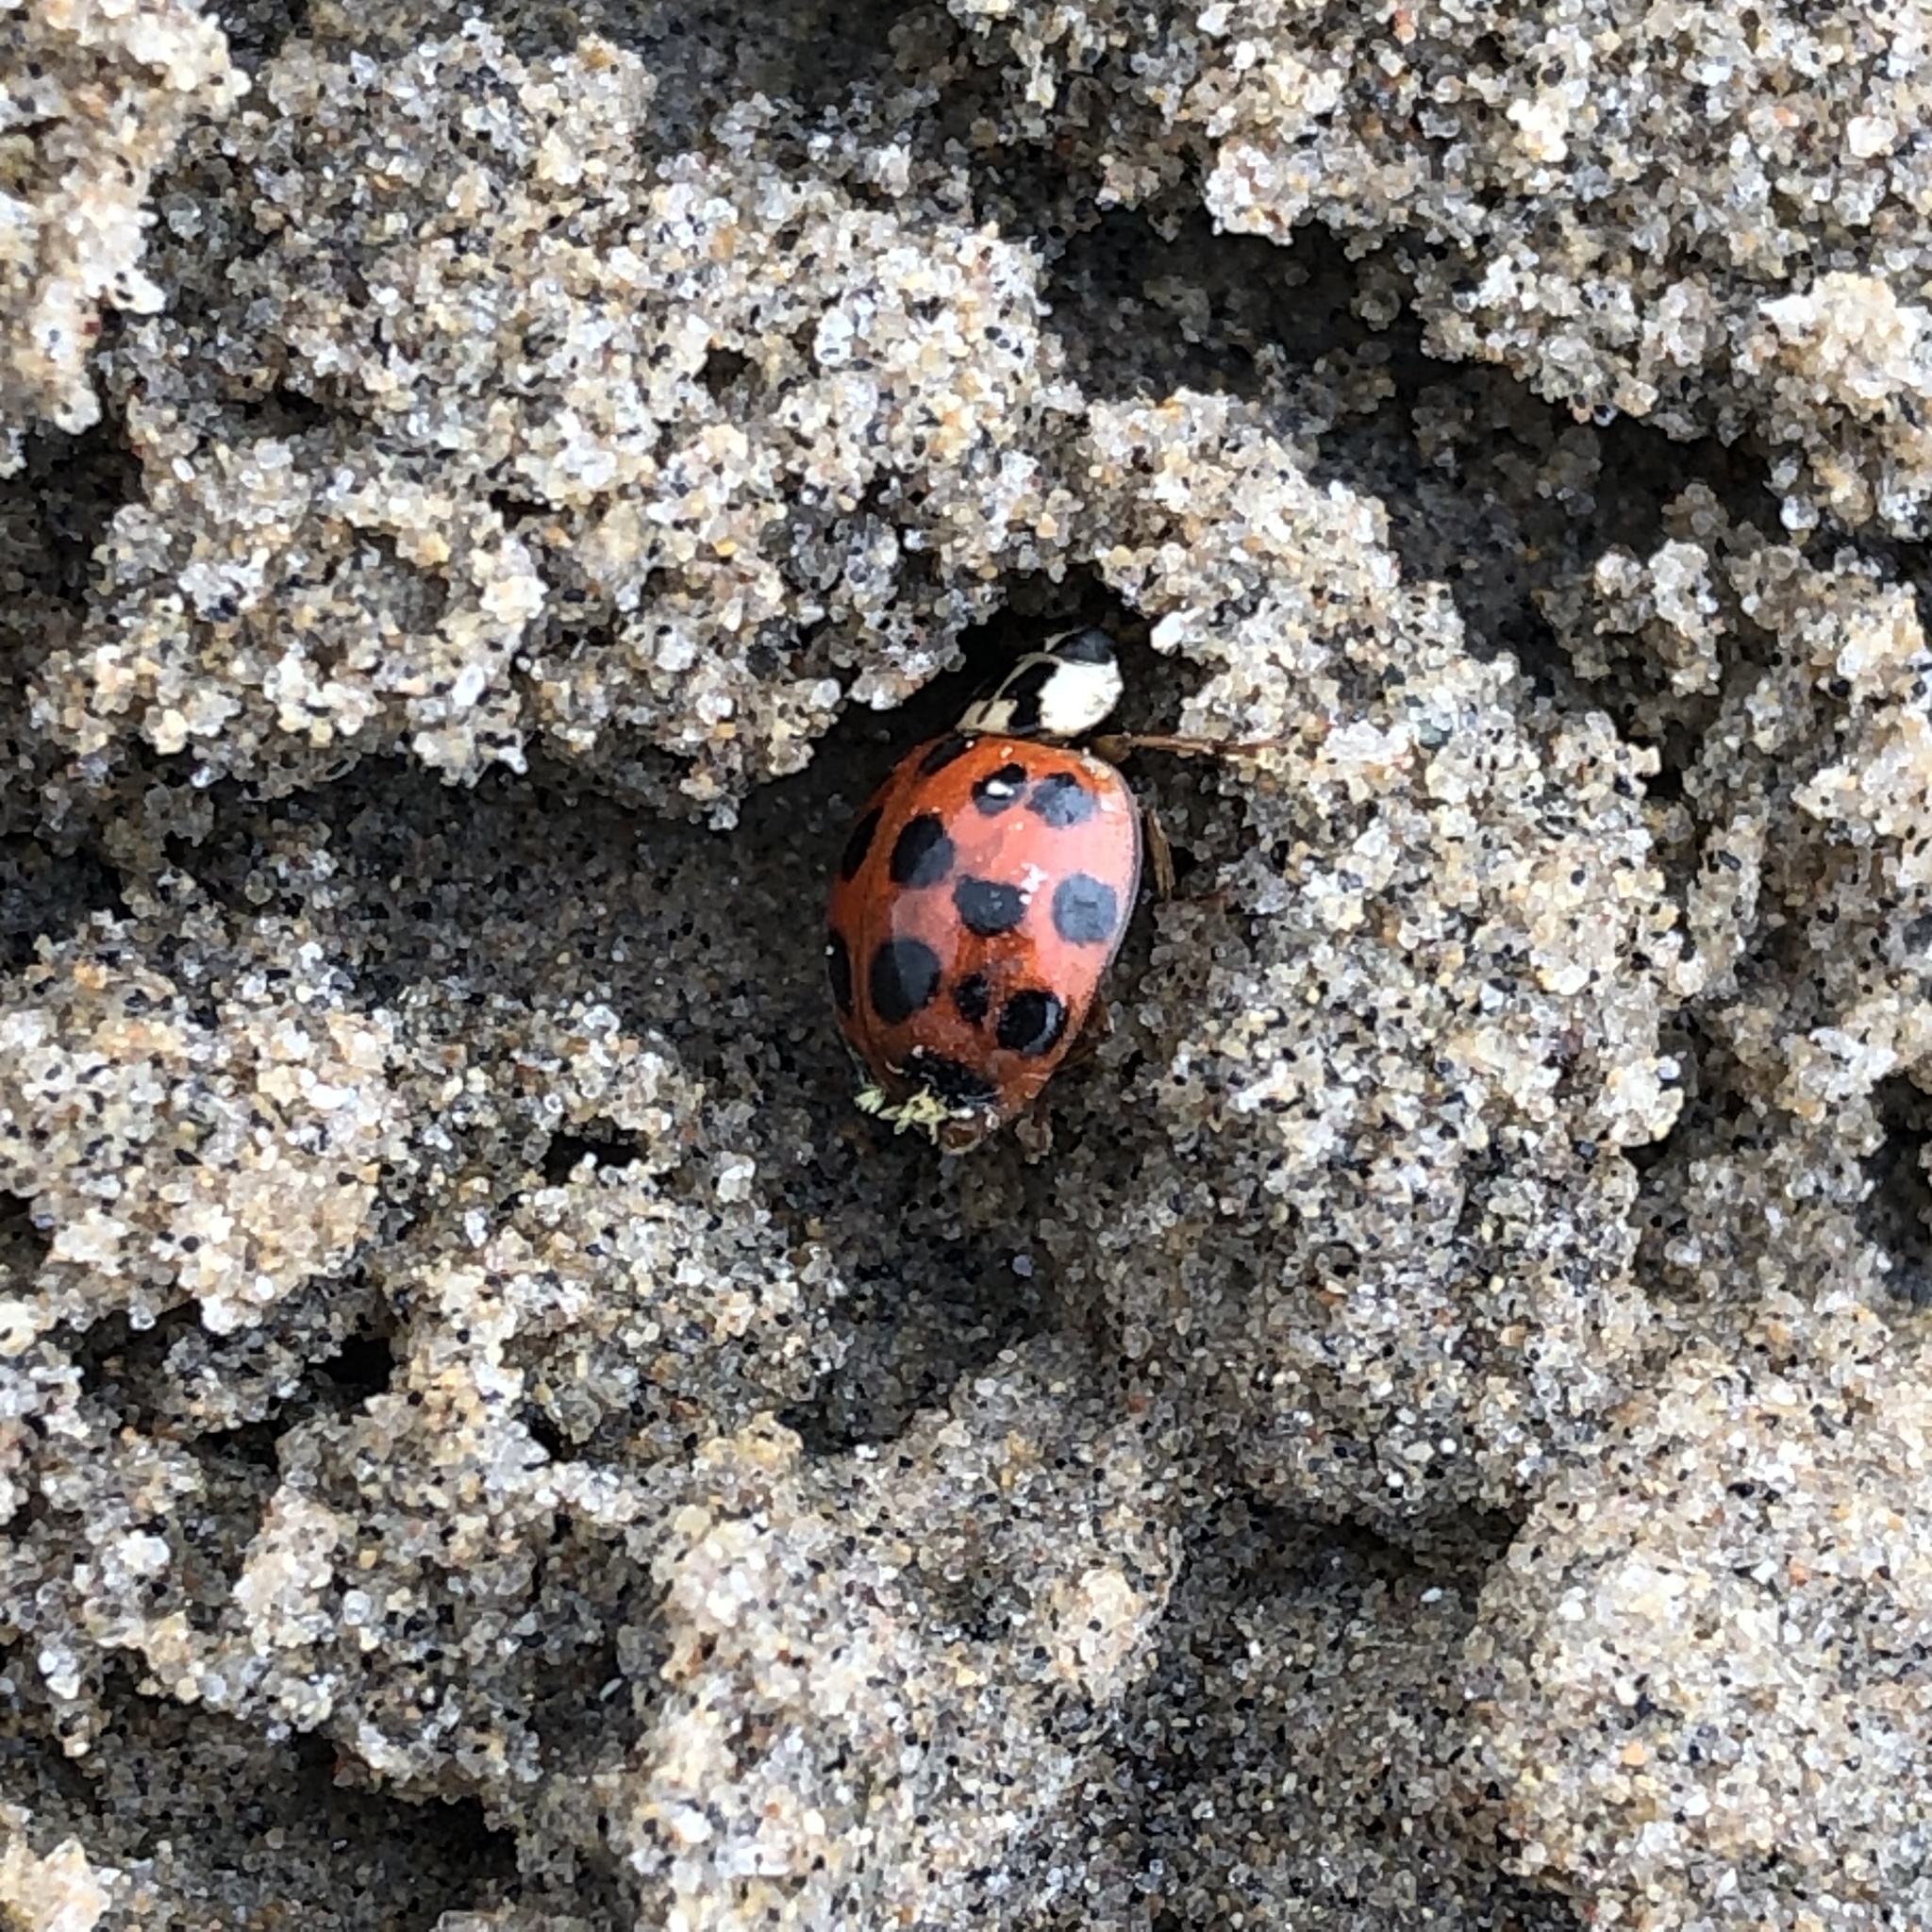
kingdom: Animalia
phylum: Arthropoda
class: Insecta
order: Coleoptera
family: Coccinellidae
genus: Harmonia
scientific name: Harmonia axyridis
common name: Harlequin ladybird
